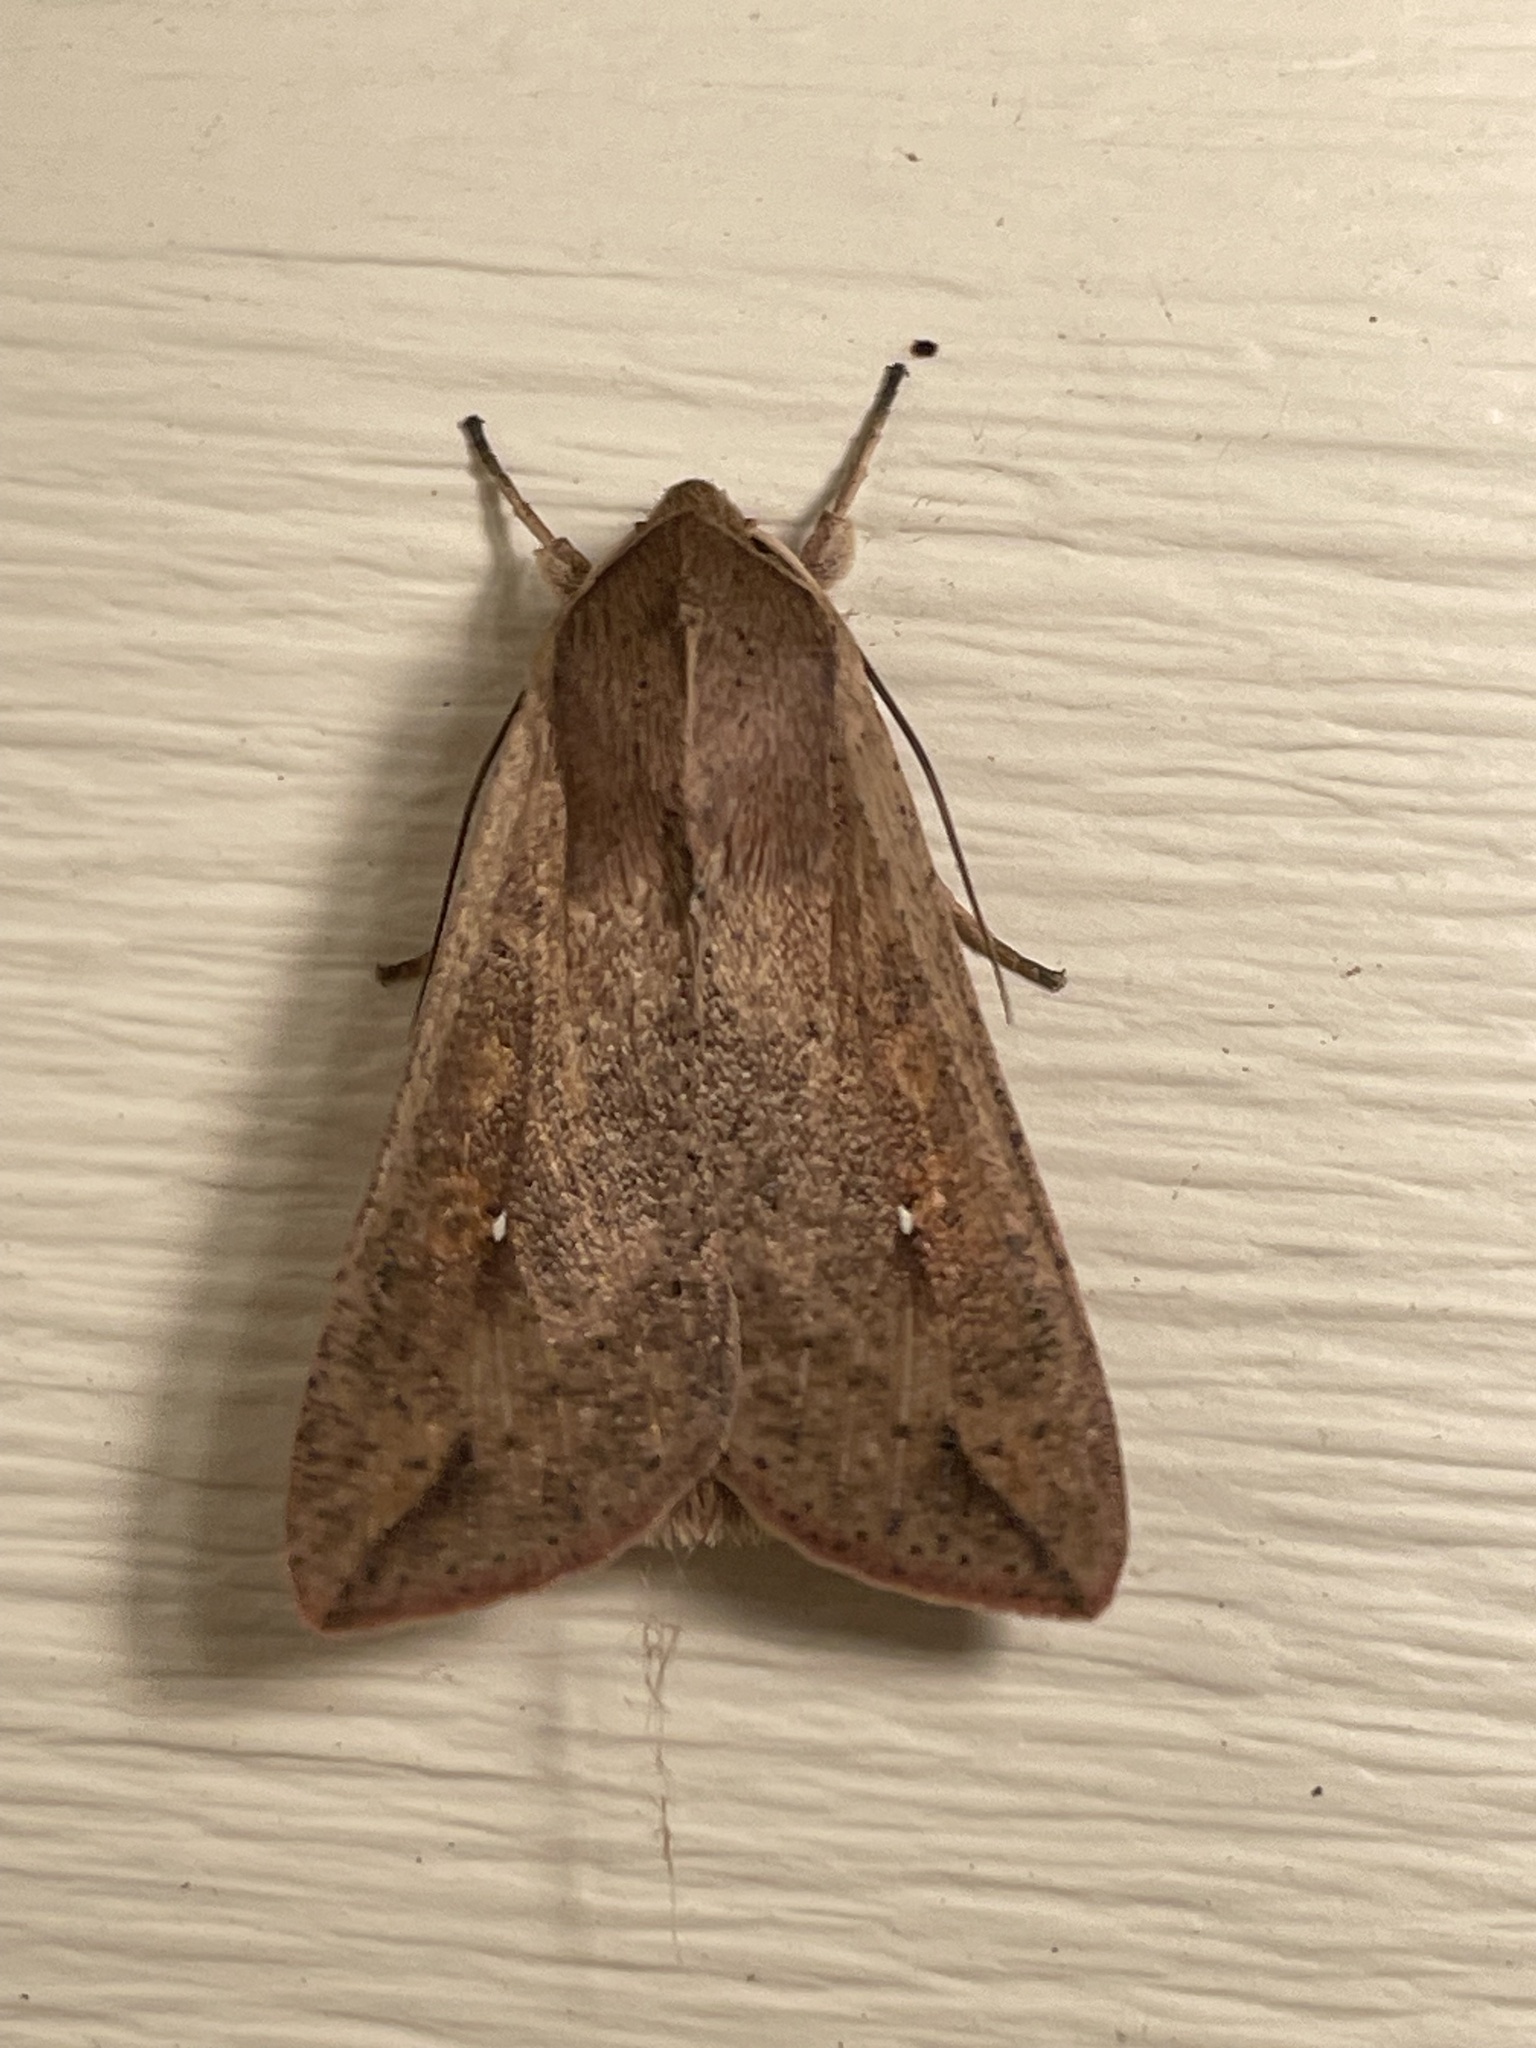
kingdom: Animalia
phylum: Arthropoda
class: Insecta
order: Lepidoptera
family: Noctuidae
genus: Mythimna
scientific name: Mythimna unipuncta
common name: White-speck
